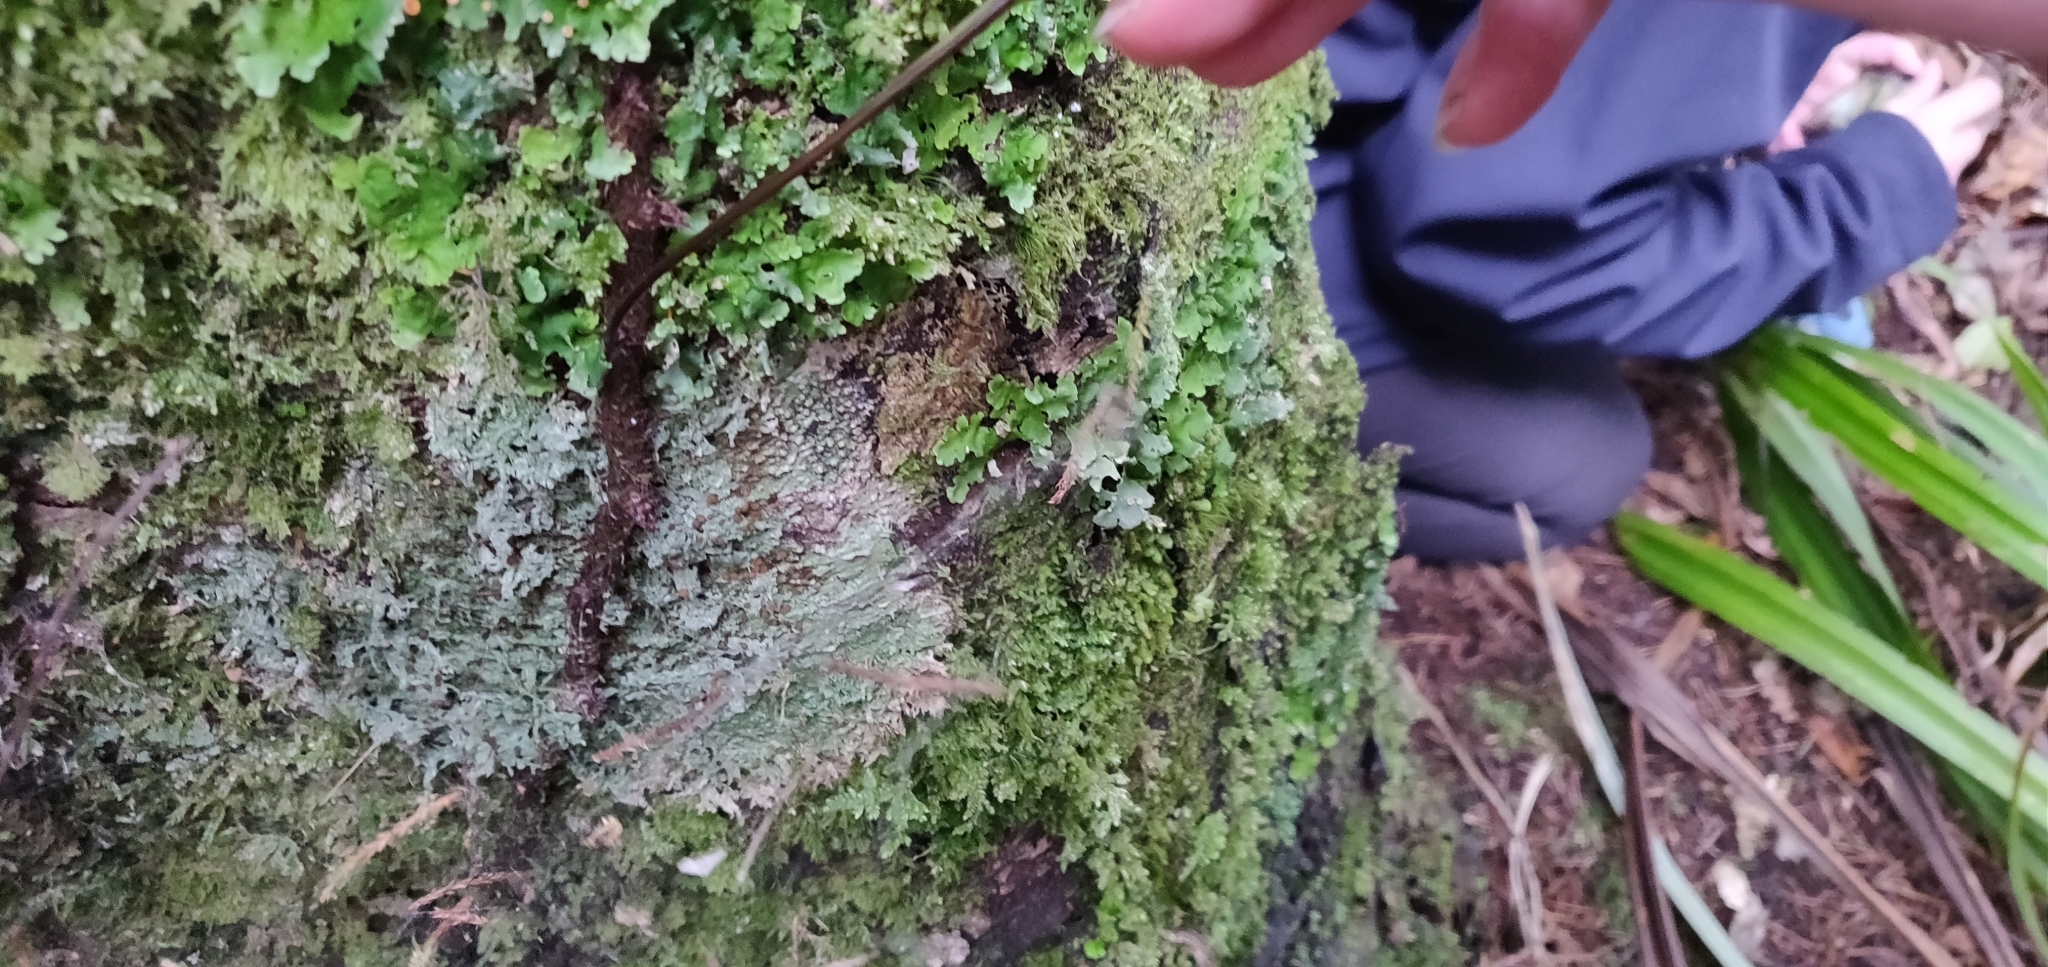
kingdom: Plantae
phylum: Tracheophyta
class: Polypodiopsida
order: Polypodiales
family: Polypodiaceae
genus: Lecanopteris
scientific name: Lecanopteris pustulata
